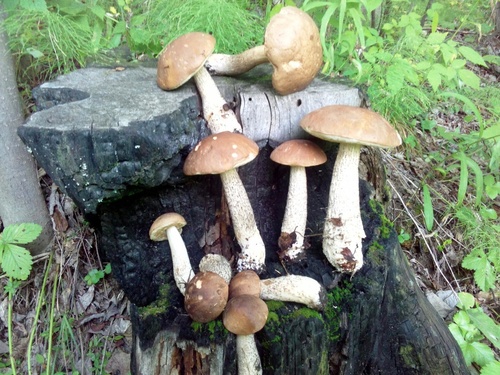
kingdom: Fungi
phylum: Basidiomycota
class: Agaricomycetes
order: Boletales
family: Boletaceae
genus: Leccinum
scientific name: Leccinum scabrum
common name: Blushing bolete
